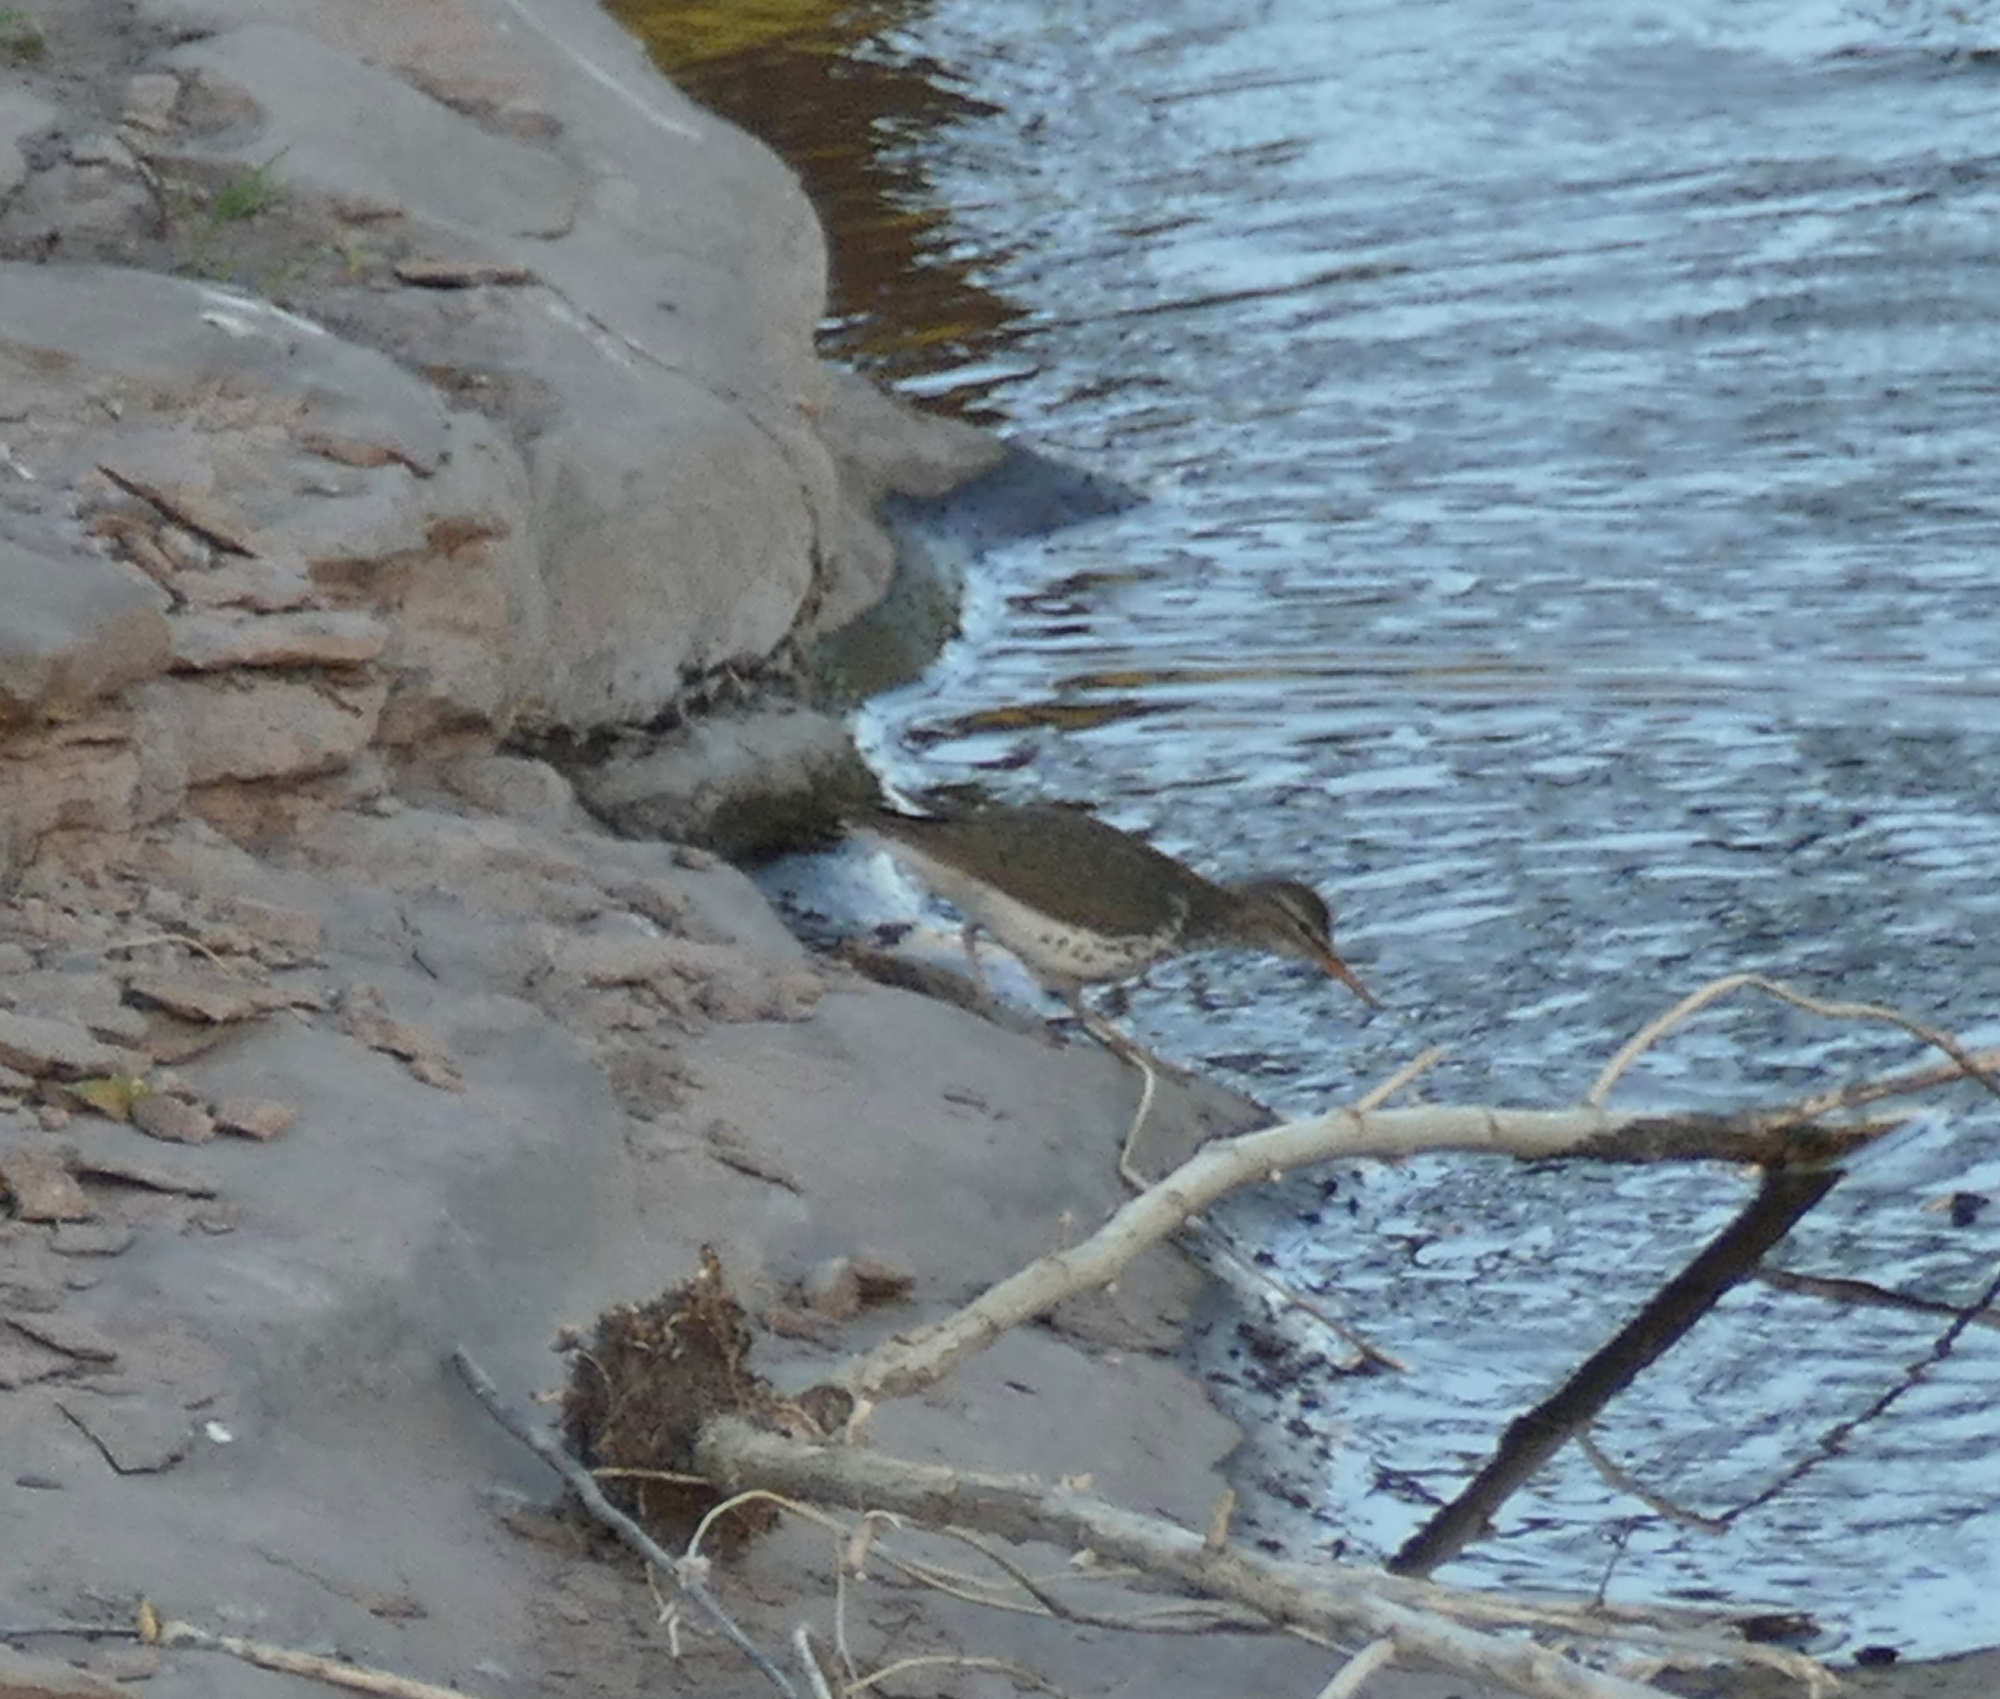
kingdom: Animalia
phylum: Chordata
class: Aves
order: Charadriiformes
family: Scolopacidae
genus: Actitis
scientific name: Actitis macularius
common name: Spotted sandpiper
